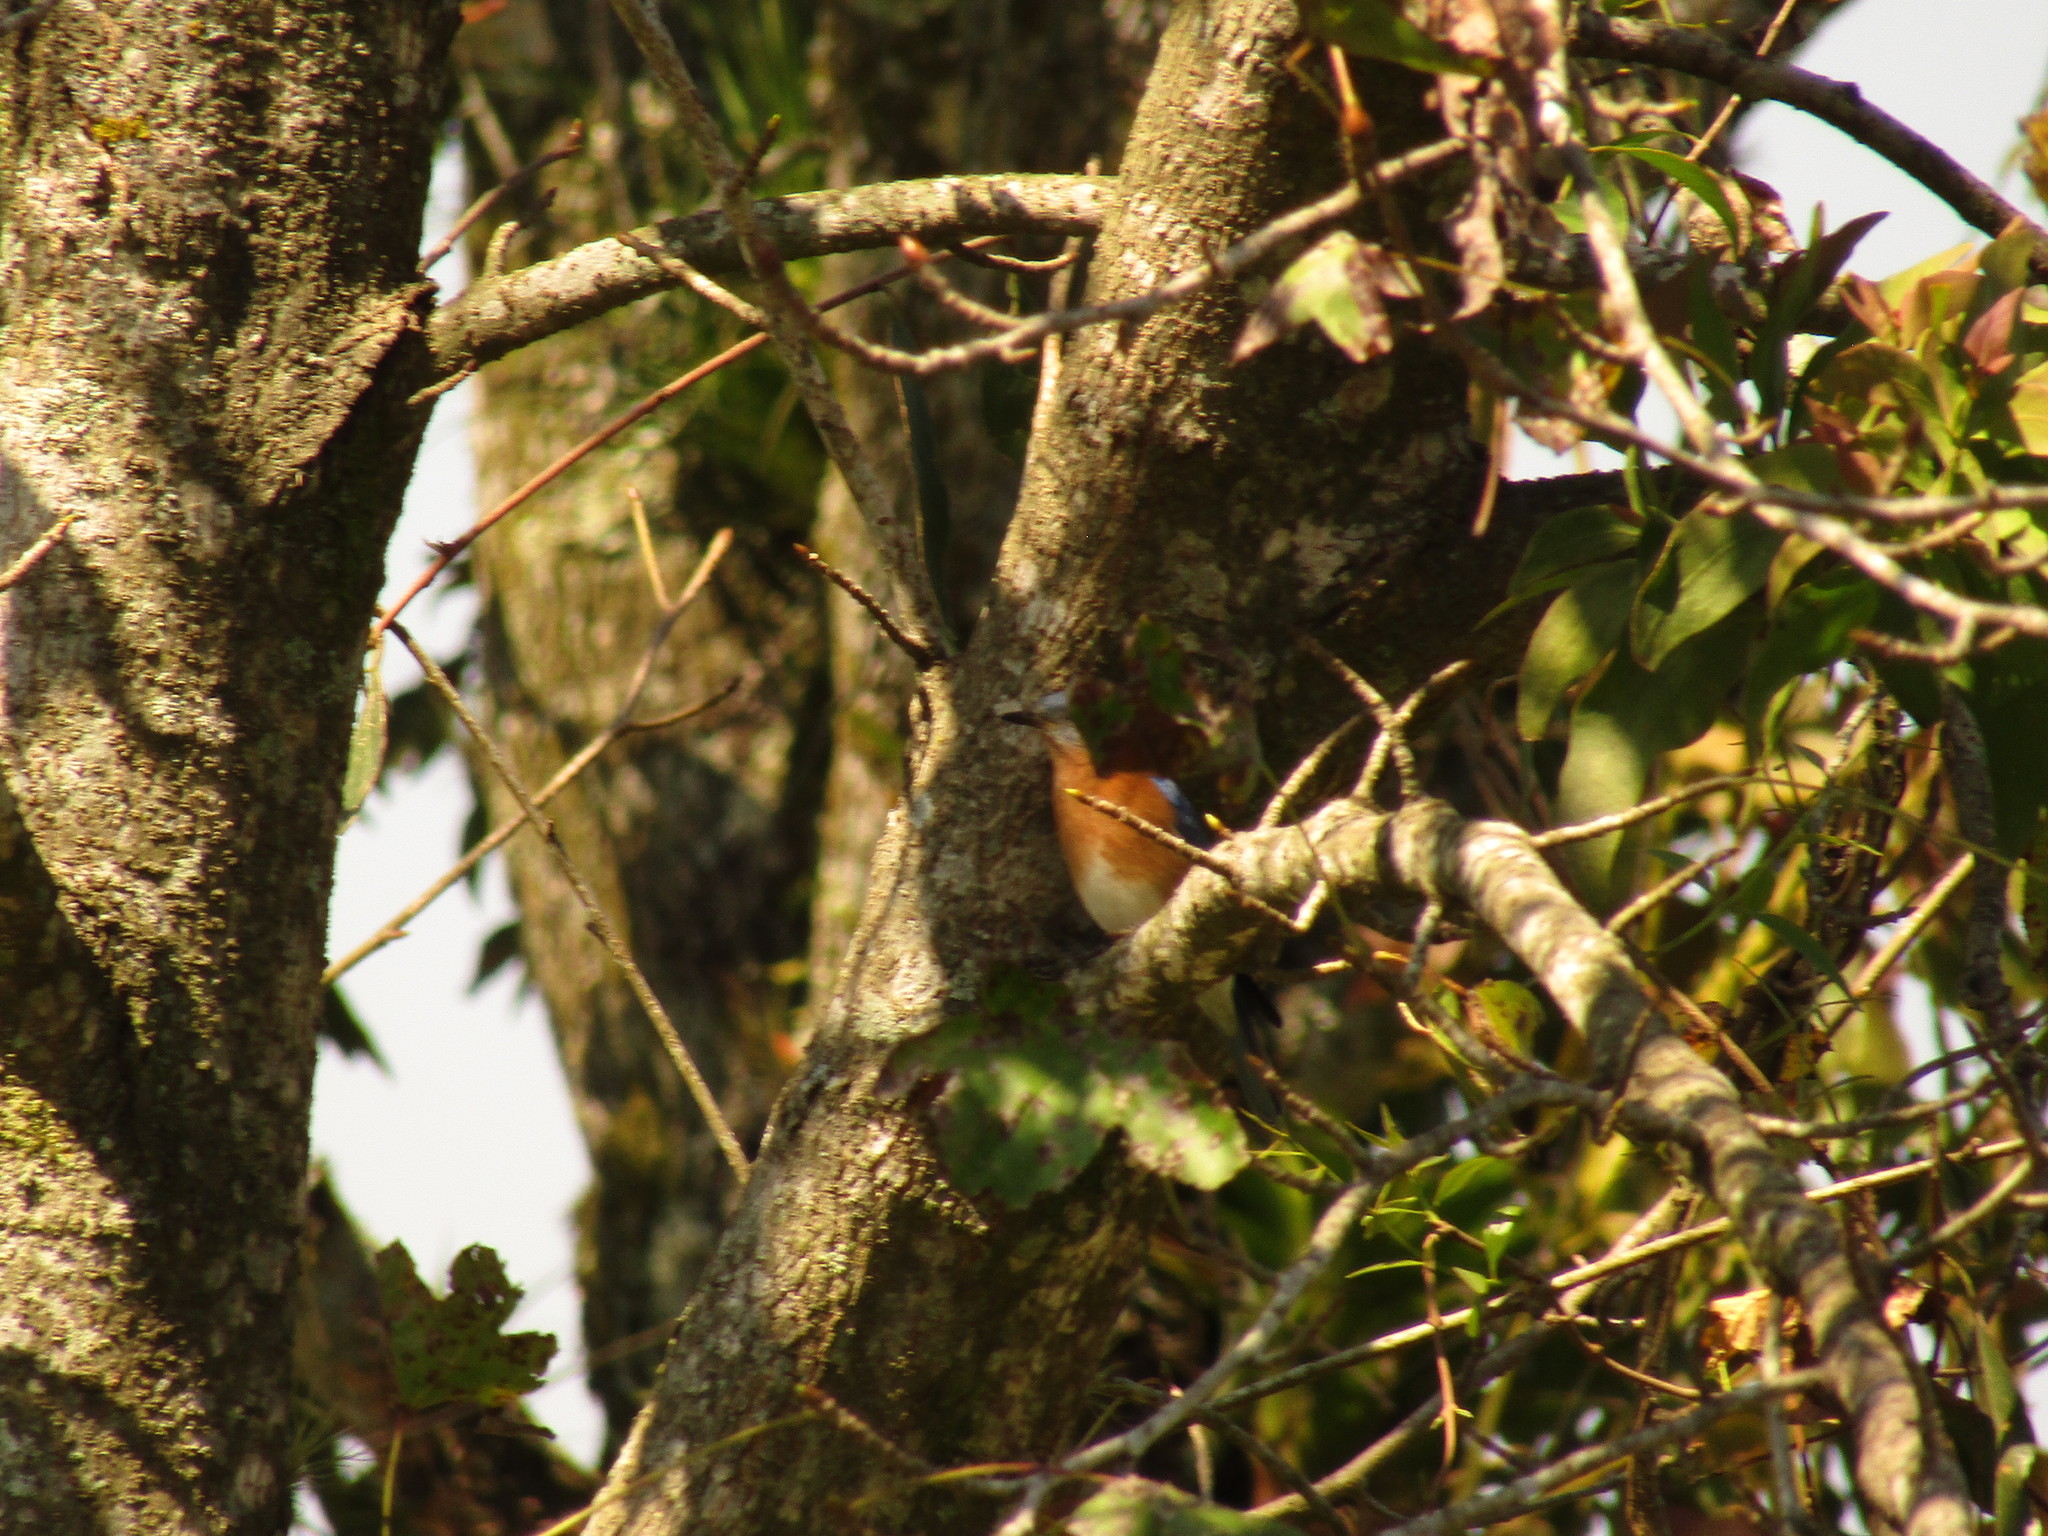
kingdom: Animalia
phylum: Chordata
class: Aves
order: Passeriformes
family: Turdidae
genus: Sialia
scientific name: Sialia sialis
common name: Eastern bluebird
